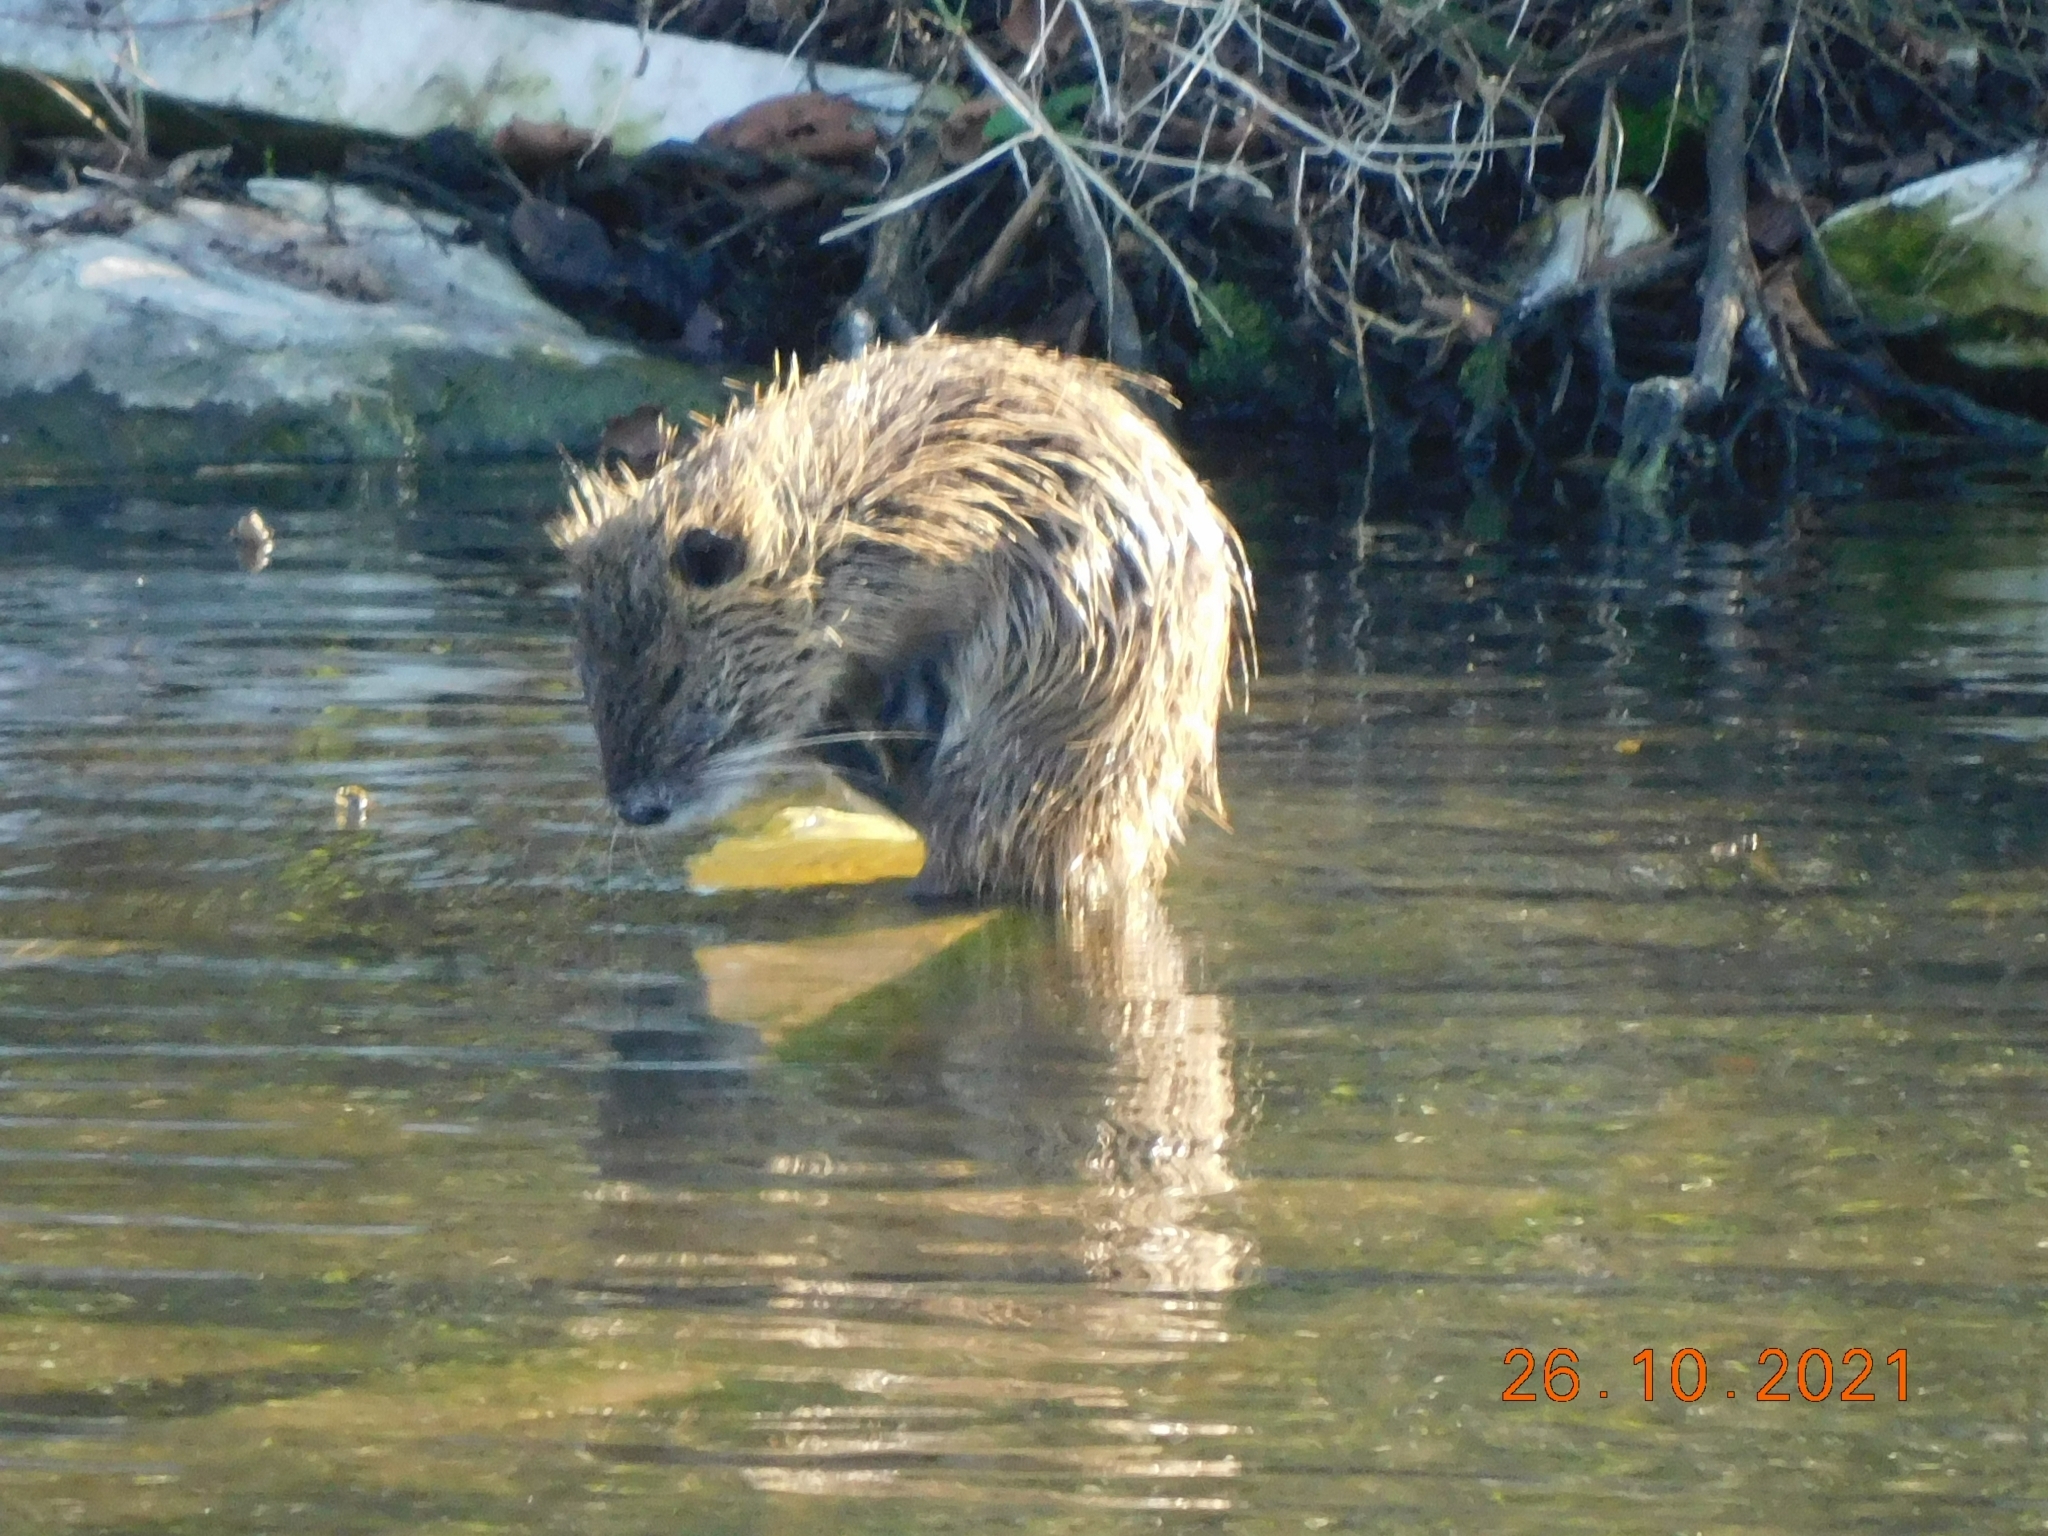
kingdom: Animalia
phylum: Chordata
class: Mammalia
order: Rodentia
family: Myocastoridae
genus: Myocastor
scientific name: Myocastor coypus
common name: Coypu
